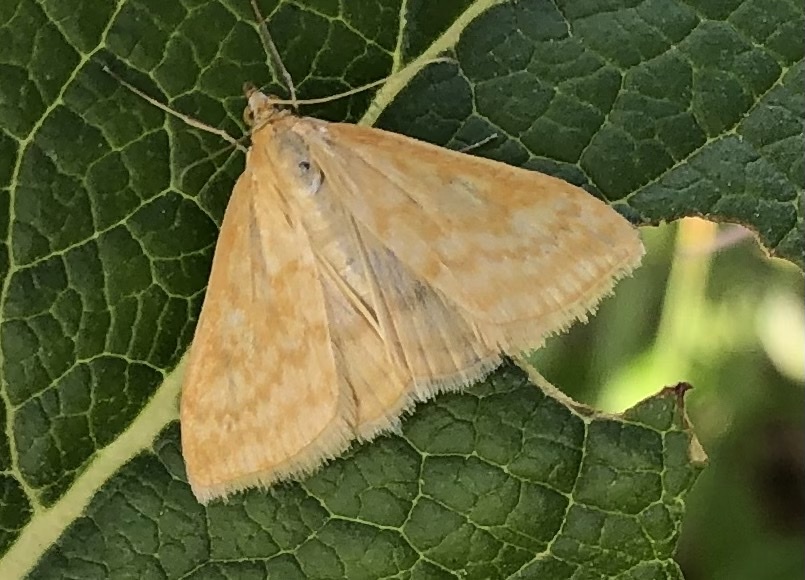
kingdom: Animalia
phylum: Arthropoda
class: Insecta
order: Lepidoptera
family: Crambidae
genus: Sitochroa
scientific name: Sitochroa verticalis
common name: Lesser pearl
